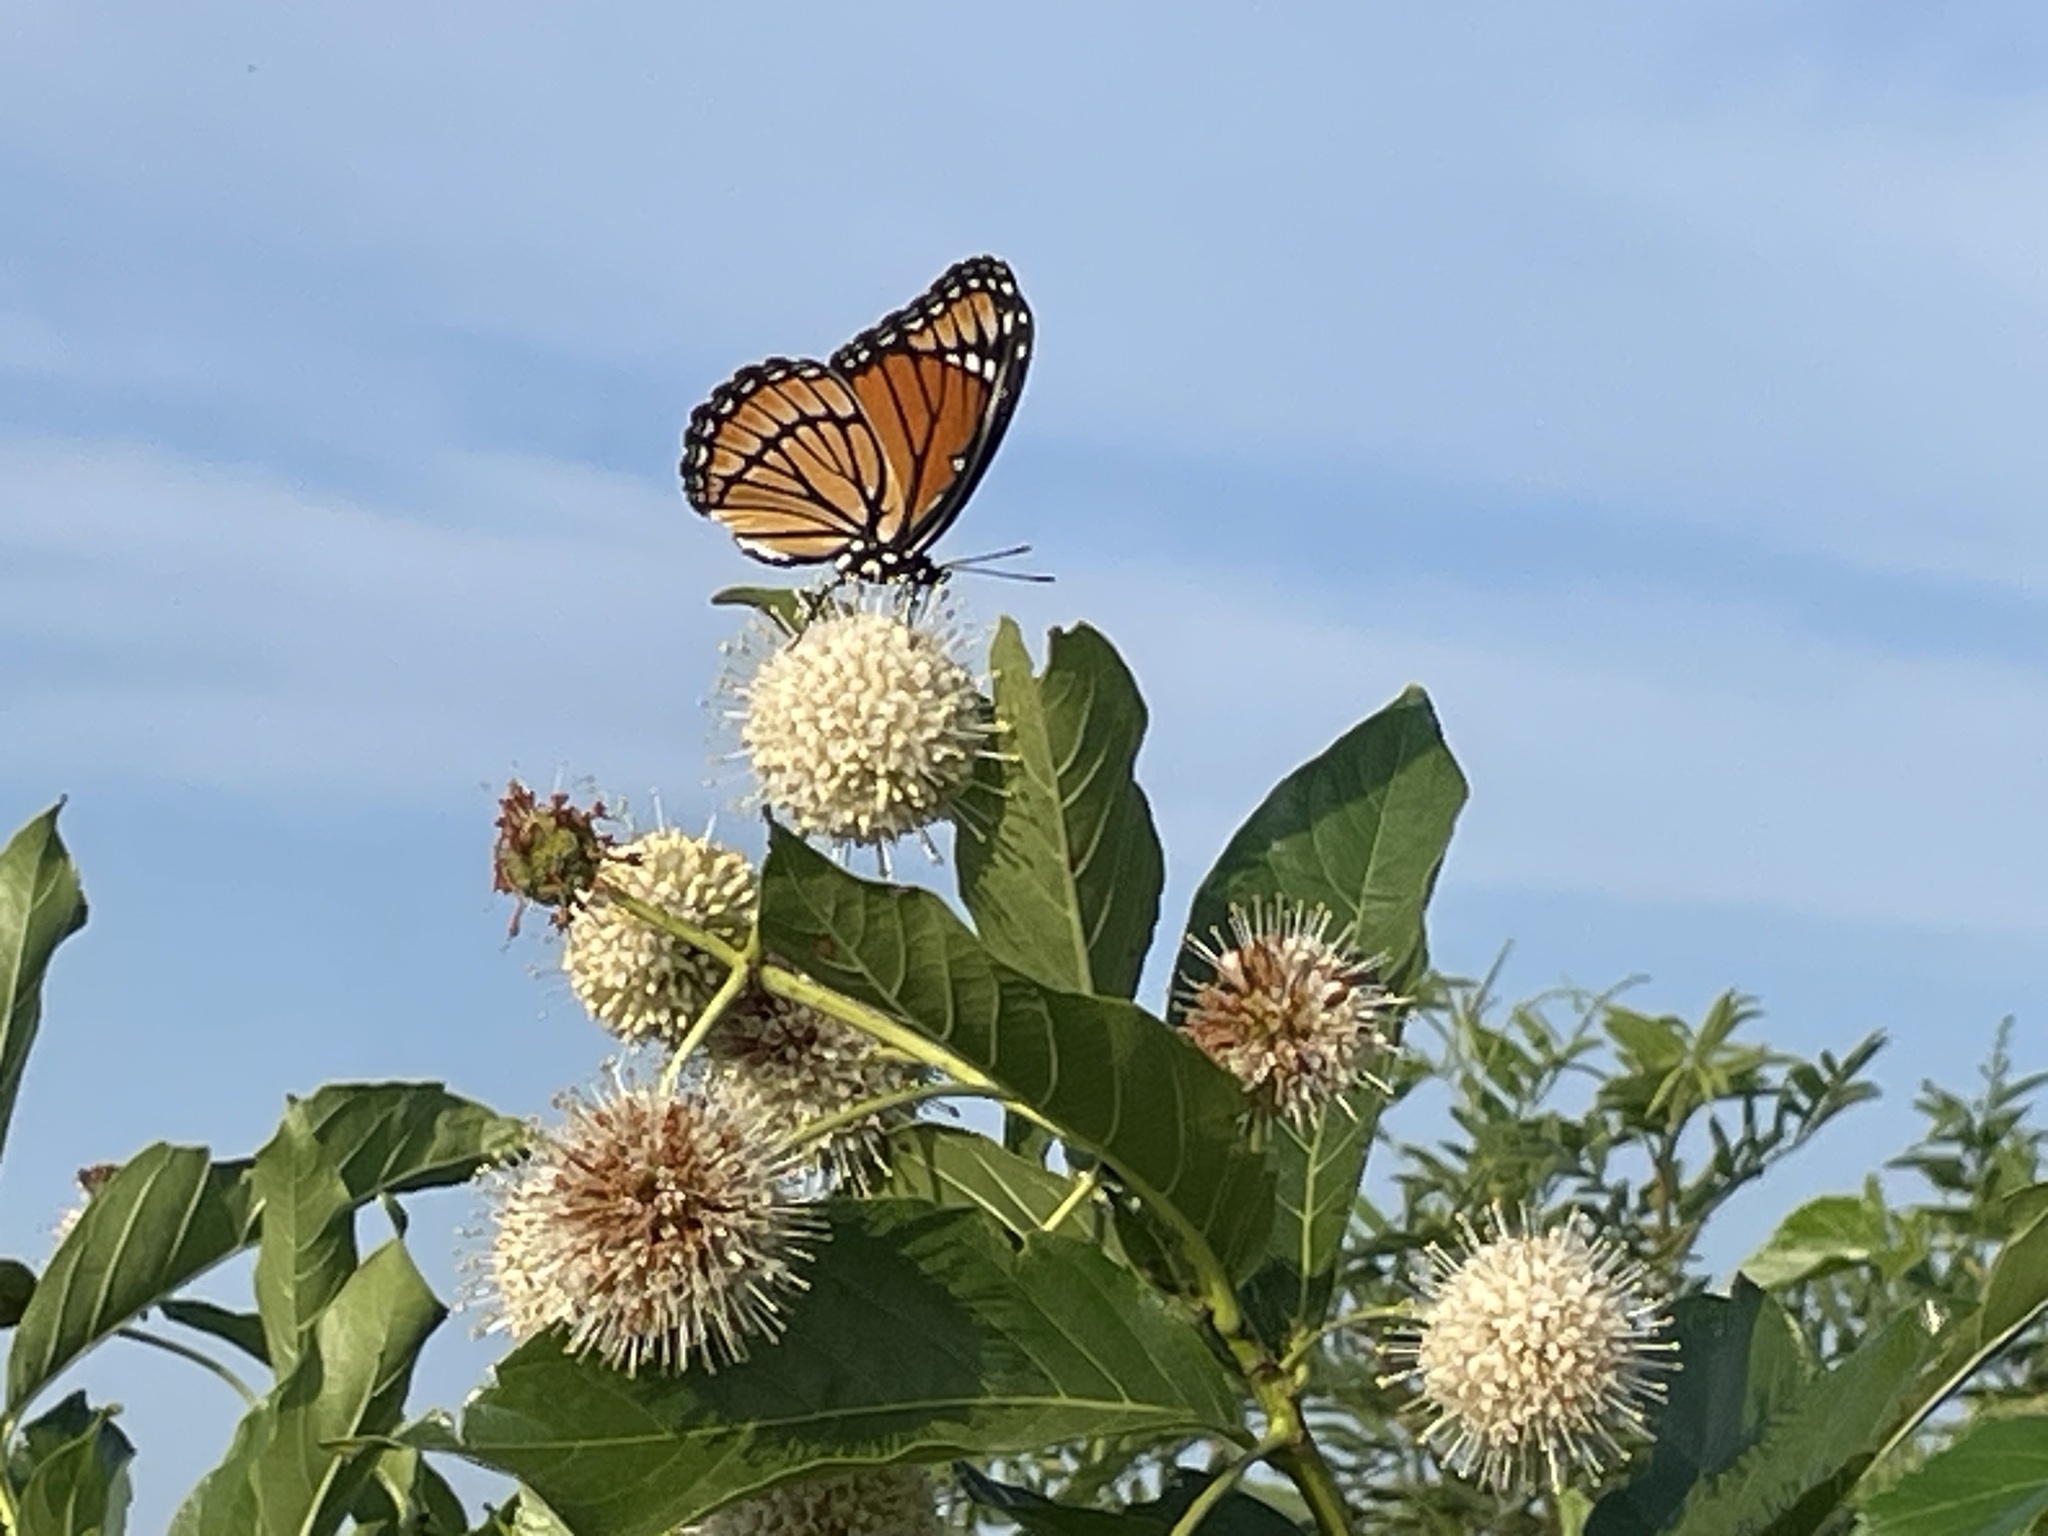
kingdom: Animalia
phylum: Arthropoda
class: Insecta
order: Lepidoptera
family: Nymphalidae
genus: Limenitis
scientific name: Limenitis archippus
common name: Viceroy
